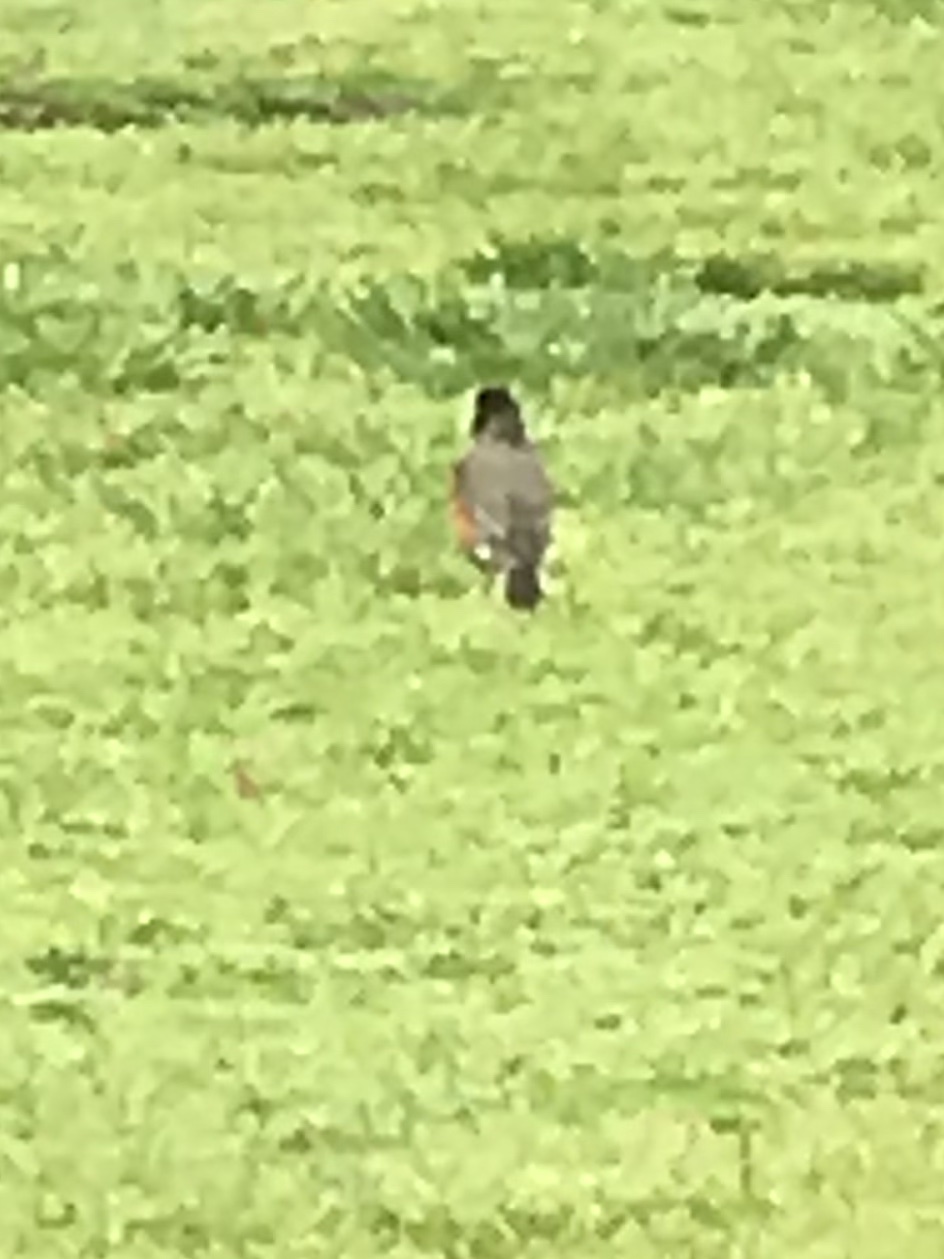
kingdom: Animalia
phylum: Chordata
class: Aves
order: Passeriformes
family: Turdidae
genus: Turdus
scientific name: Turdus migratorius
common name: American robin
